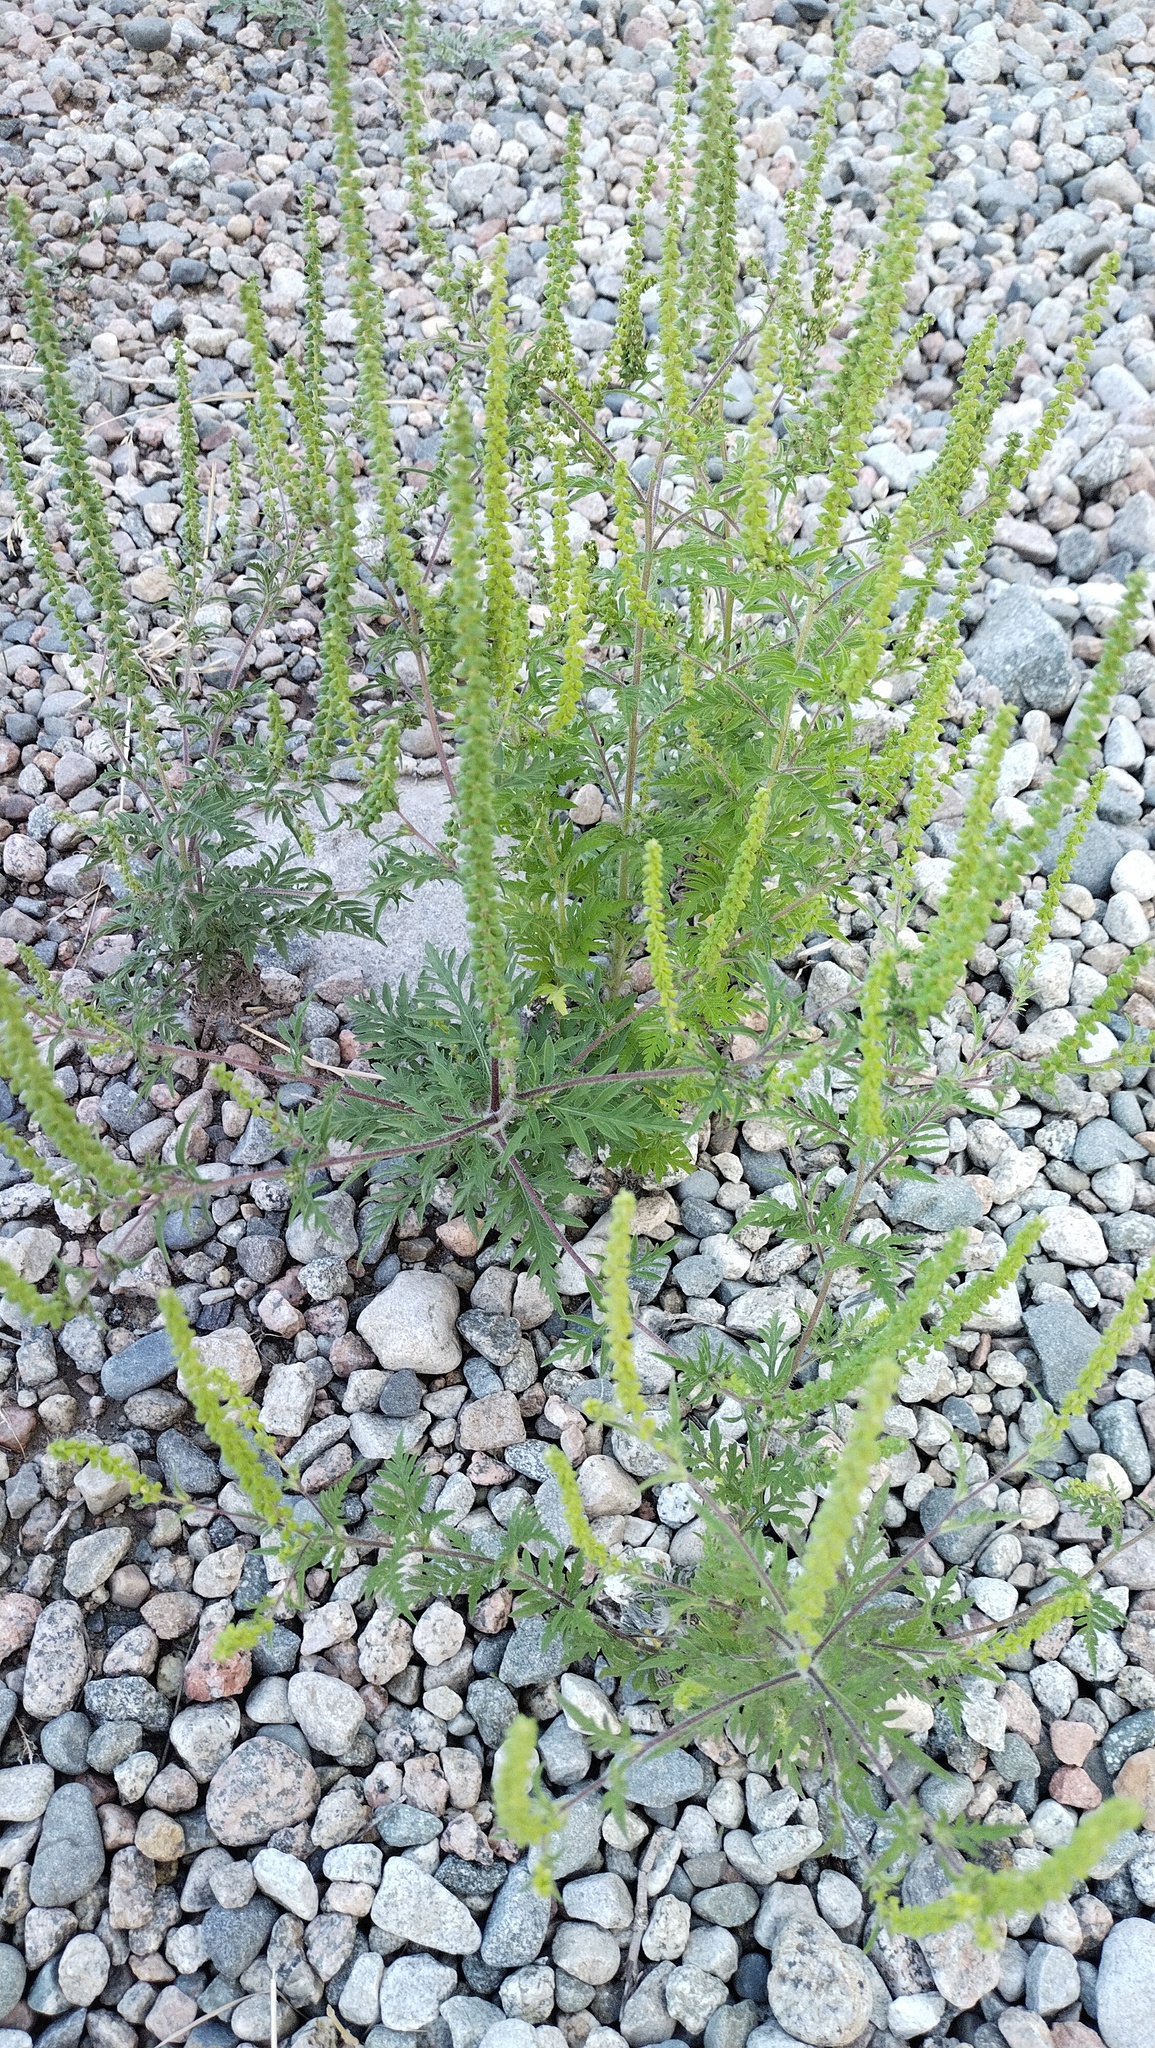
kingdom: Plantae
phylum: Tracheophyta
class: Magnoliopsida
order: Asterales
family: Asteraceae
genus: Ambrosia
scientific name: Ambrosia artemisiifolia
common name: Annual ragweed
